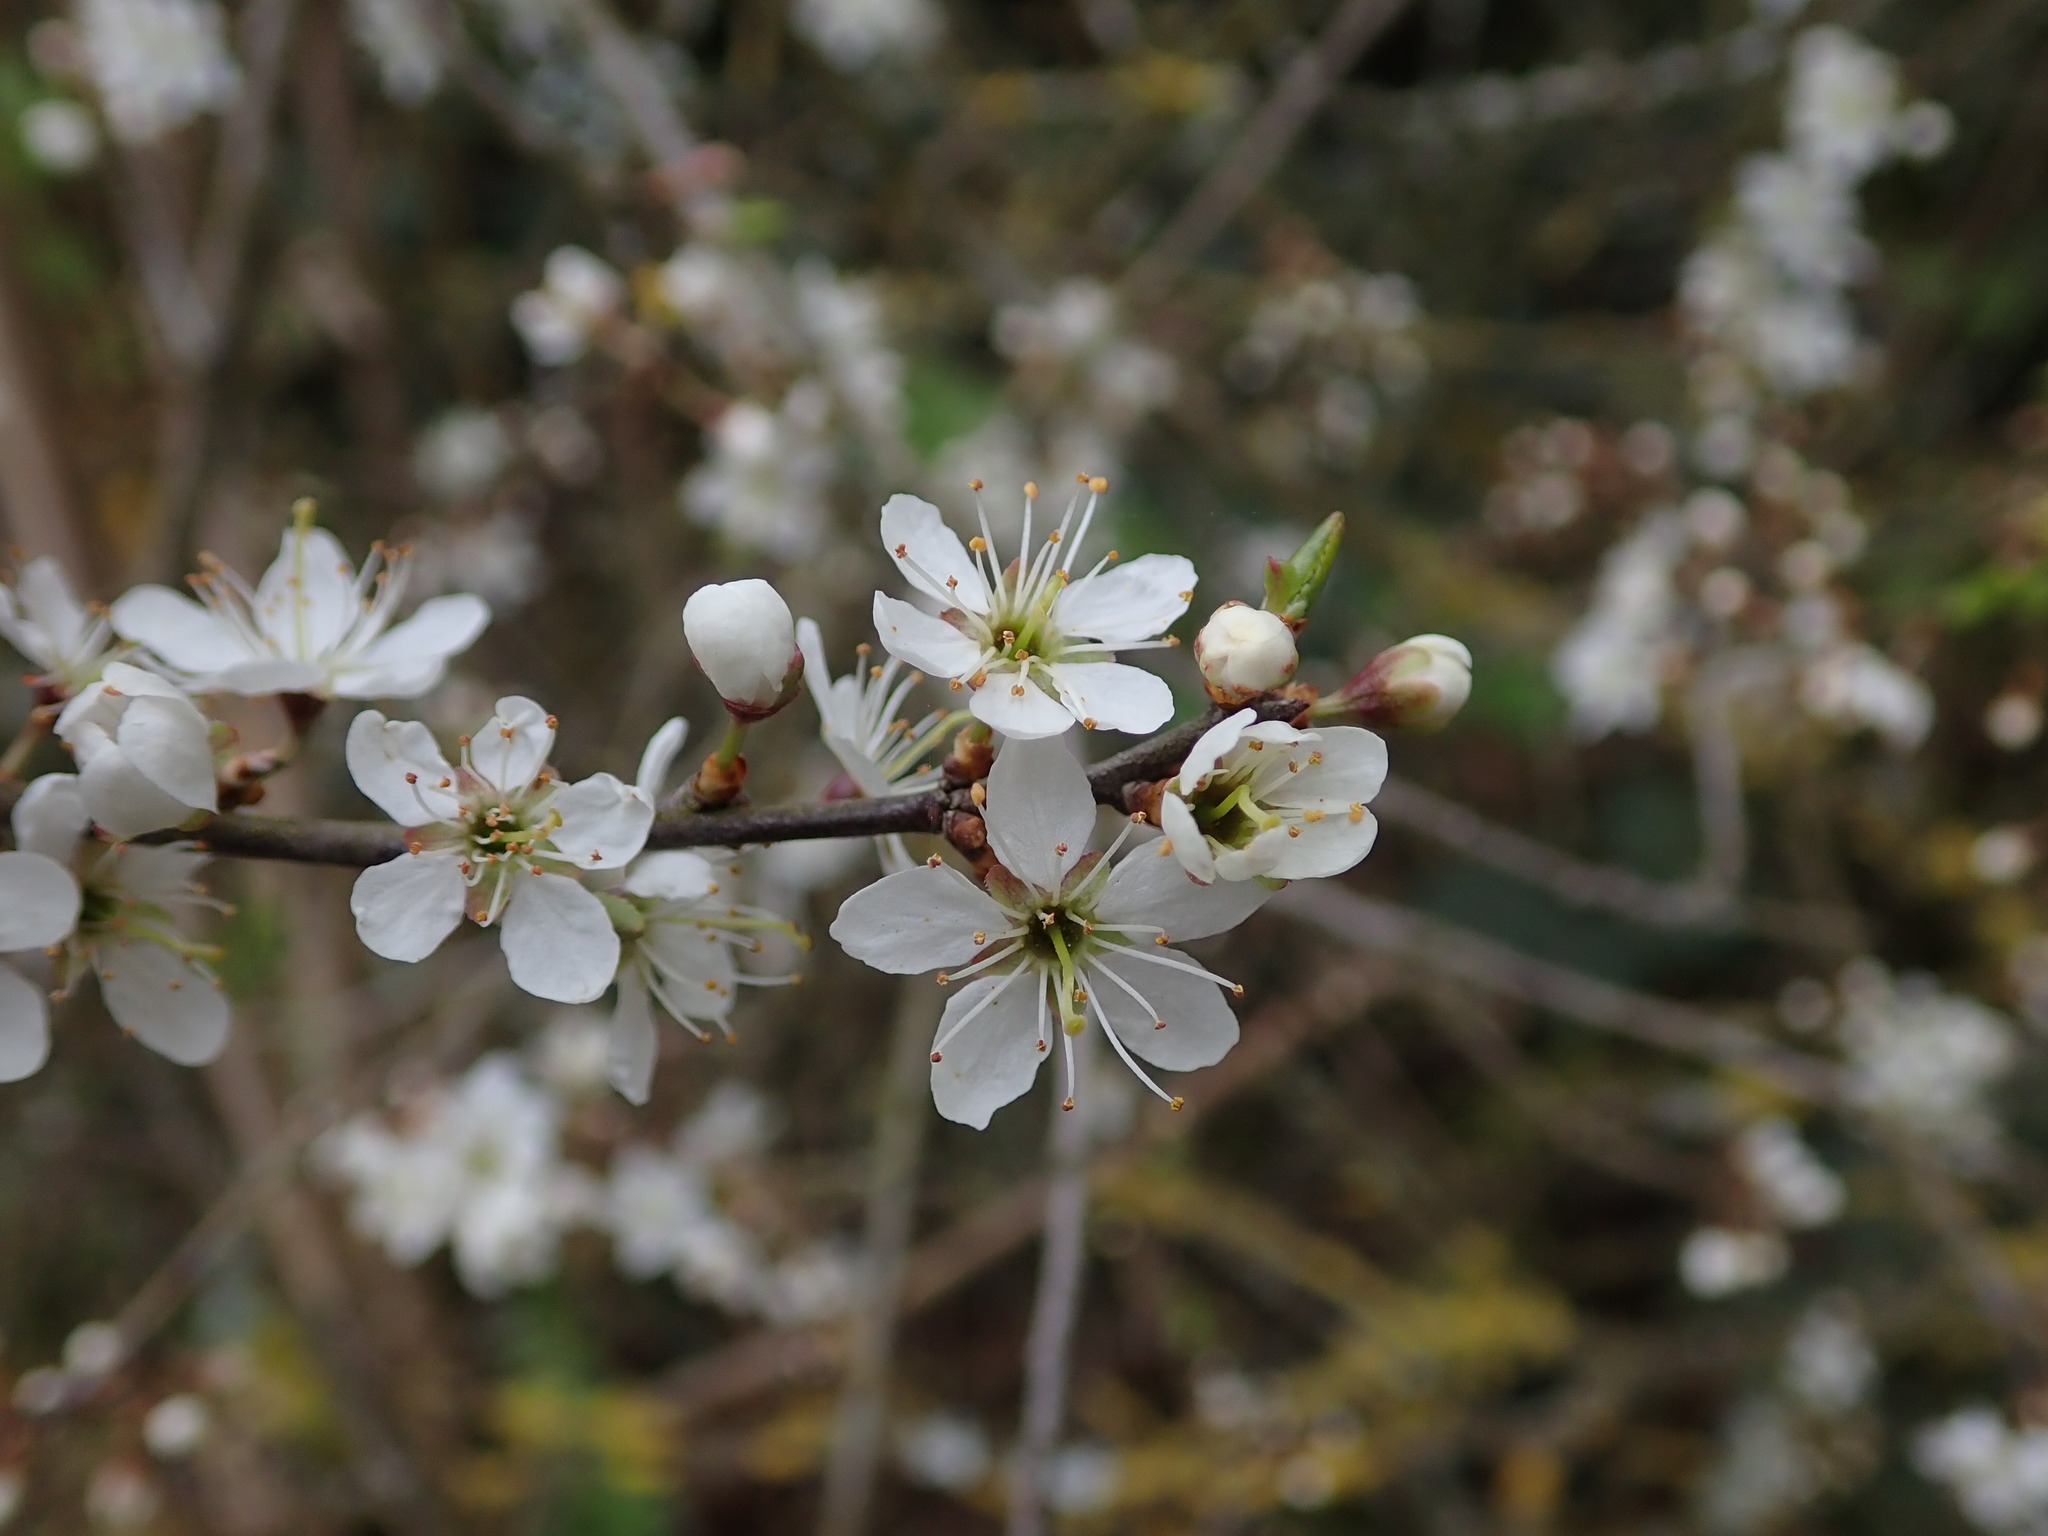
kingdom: Plantae
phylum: Tracheophyta
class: Magnoliopsida
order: Rosales
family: Rosaceae
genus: Prunus
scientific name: Prunus spinosa
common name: Blackthorn
